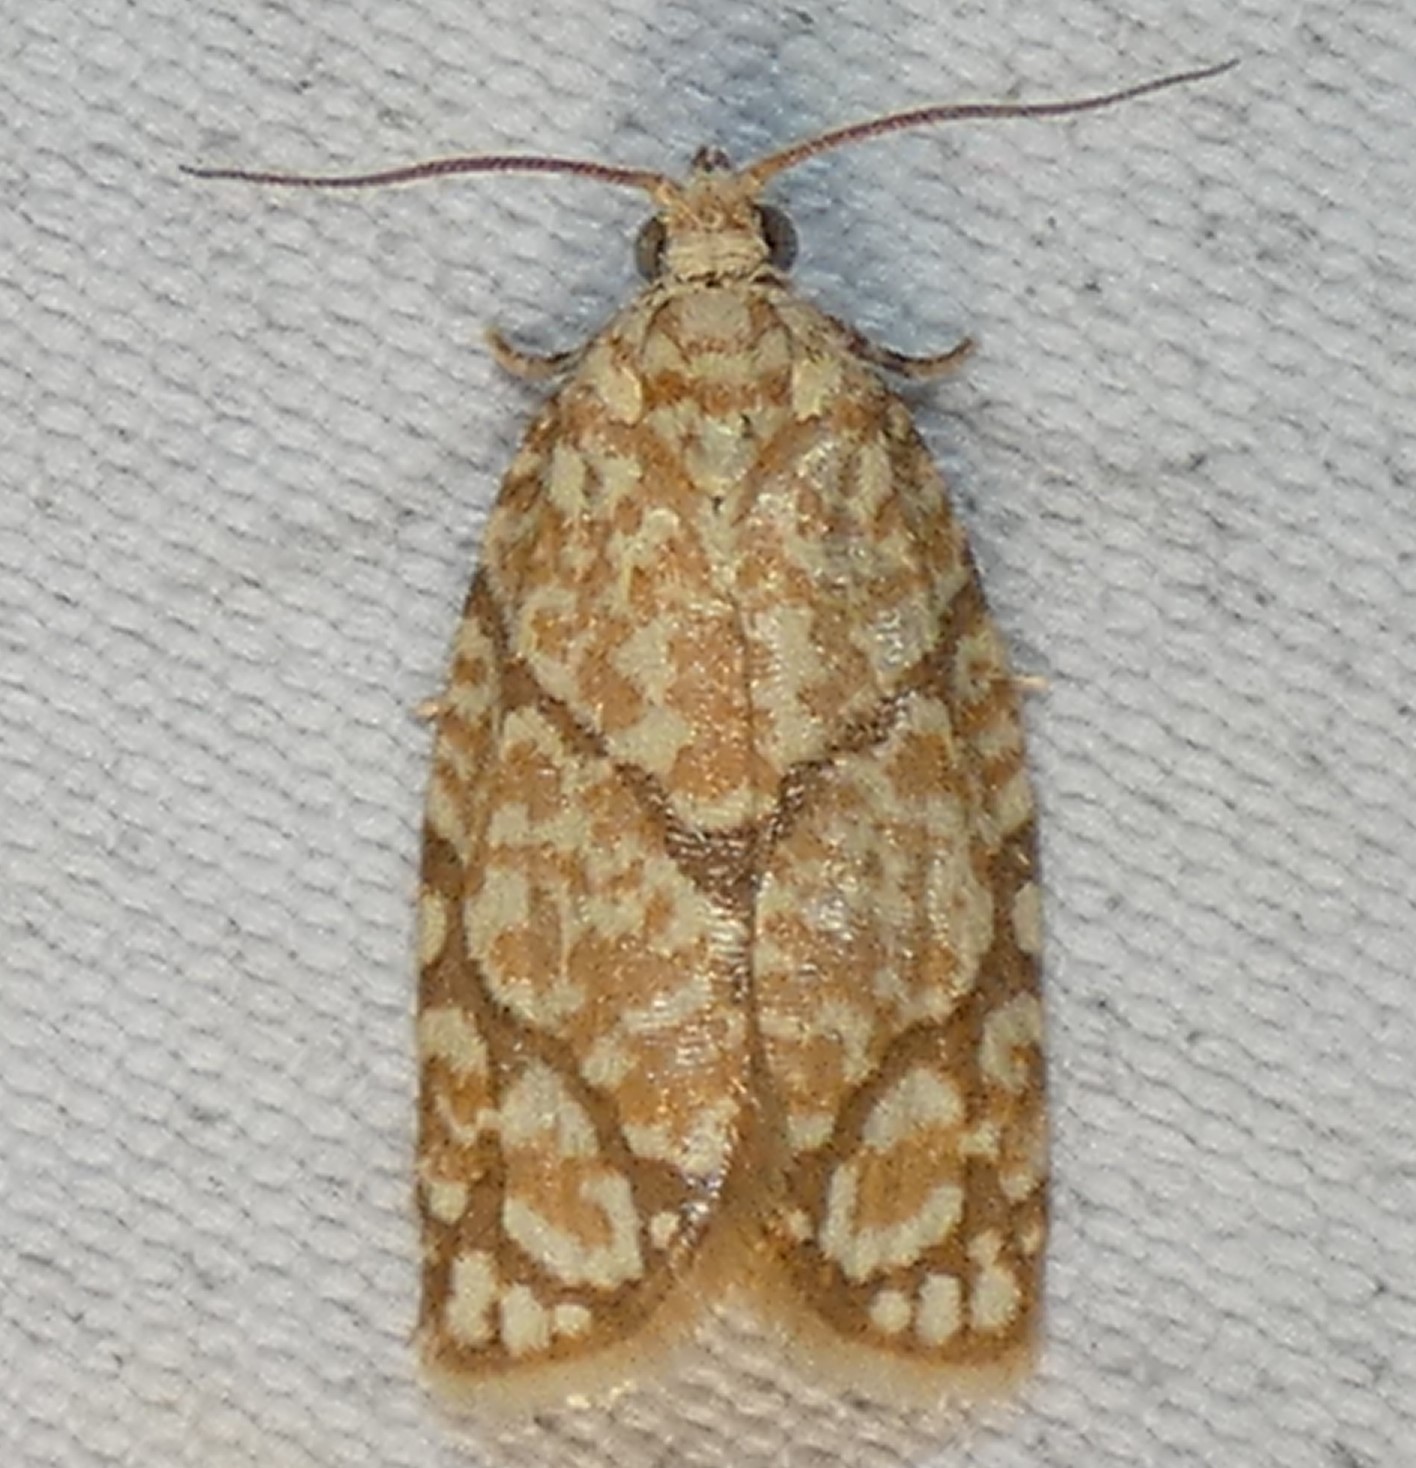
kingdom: Animalia
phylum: Arthropoda
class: Insecta
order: Lepidoptera
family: Tortricidae
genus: Argyrotaenia
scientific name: Argyrotaenia quercifoliana
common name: Yellow-winged oak leafroller moth
